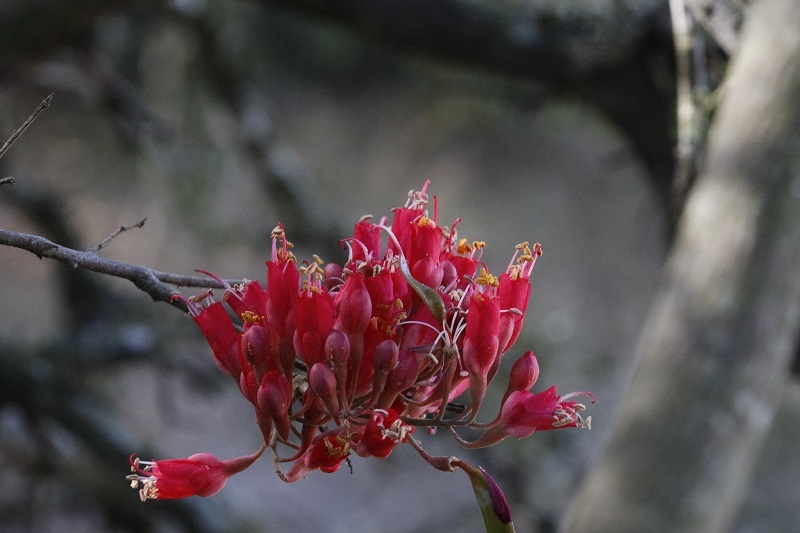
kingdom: Plantae
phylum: Tracheophyta
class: Magnoliopsida
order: Fabales
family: Fabaceae
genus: Schotia
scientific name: Schotia afra
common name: Hottentot's bean
